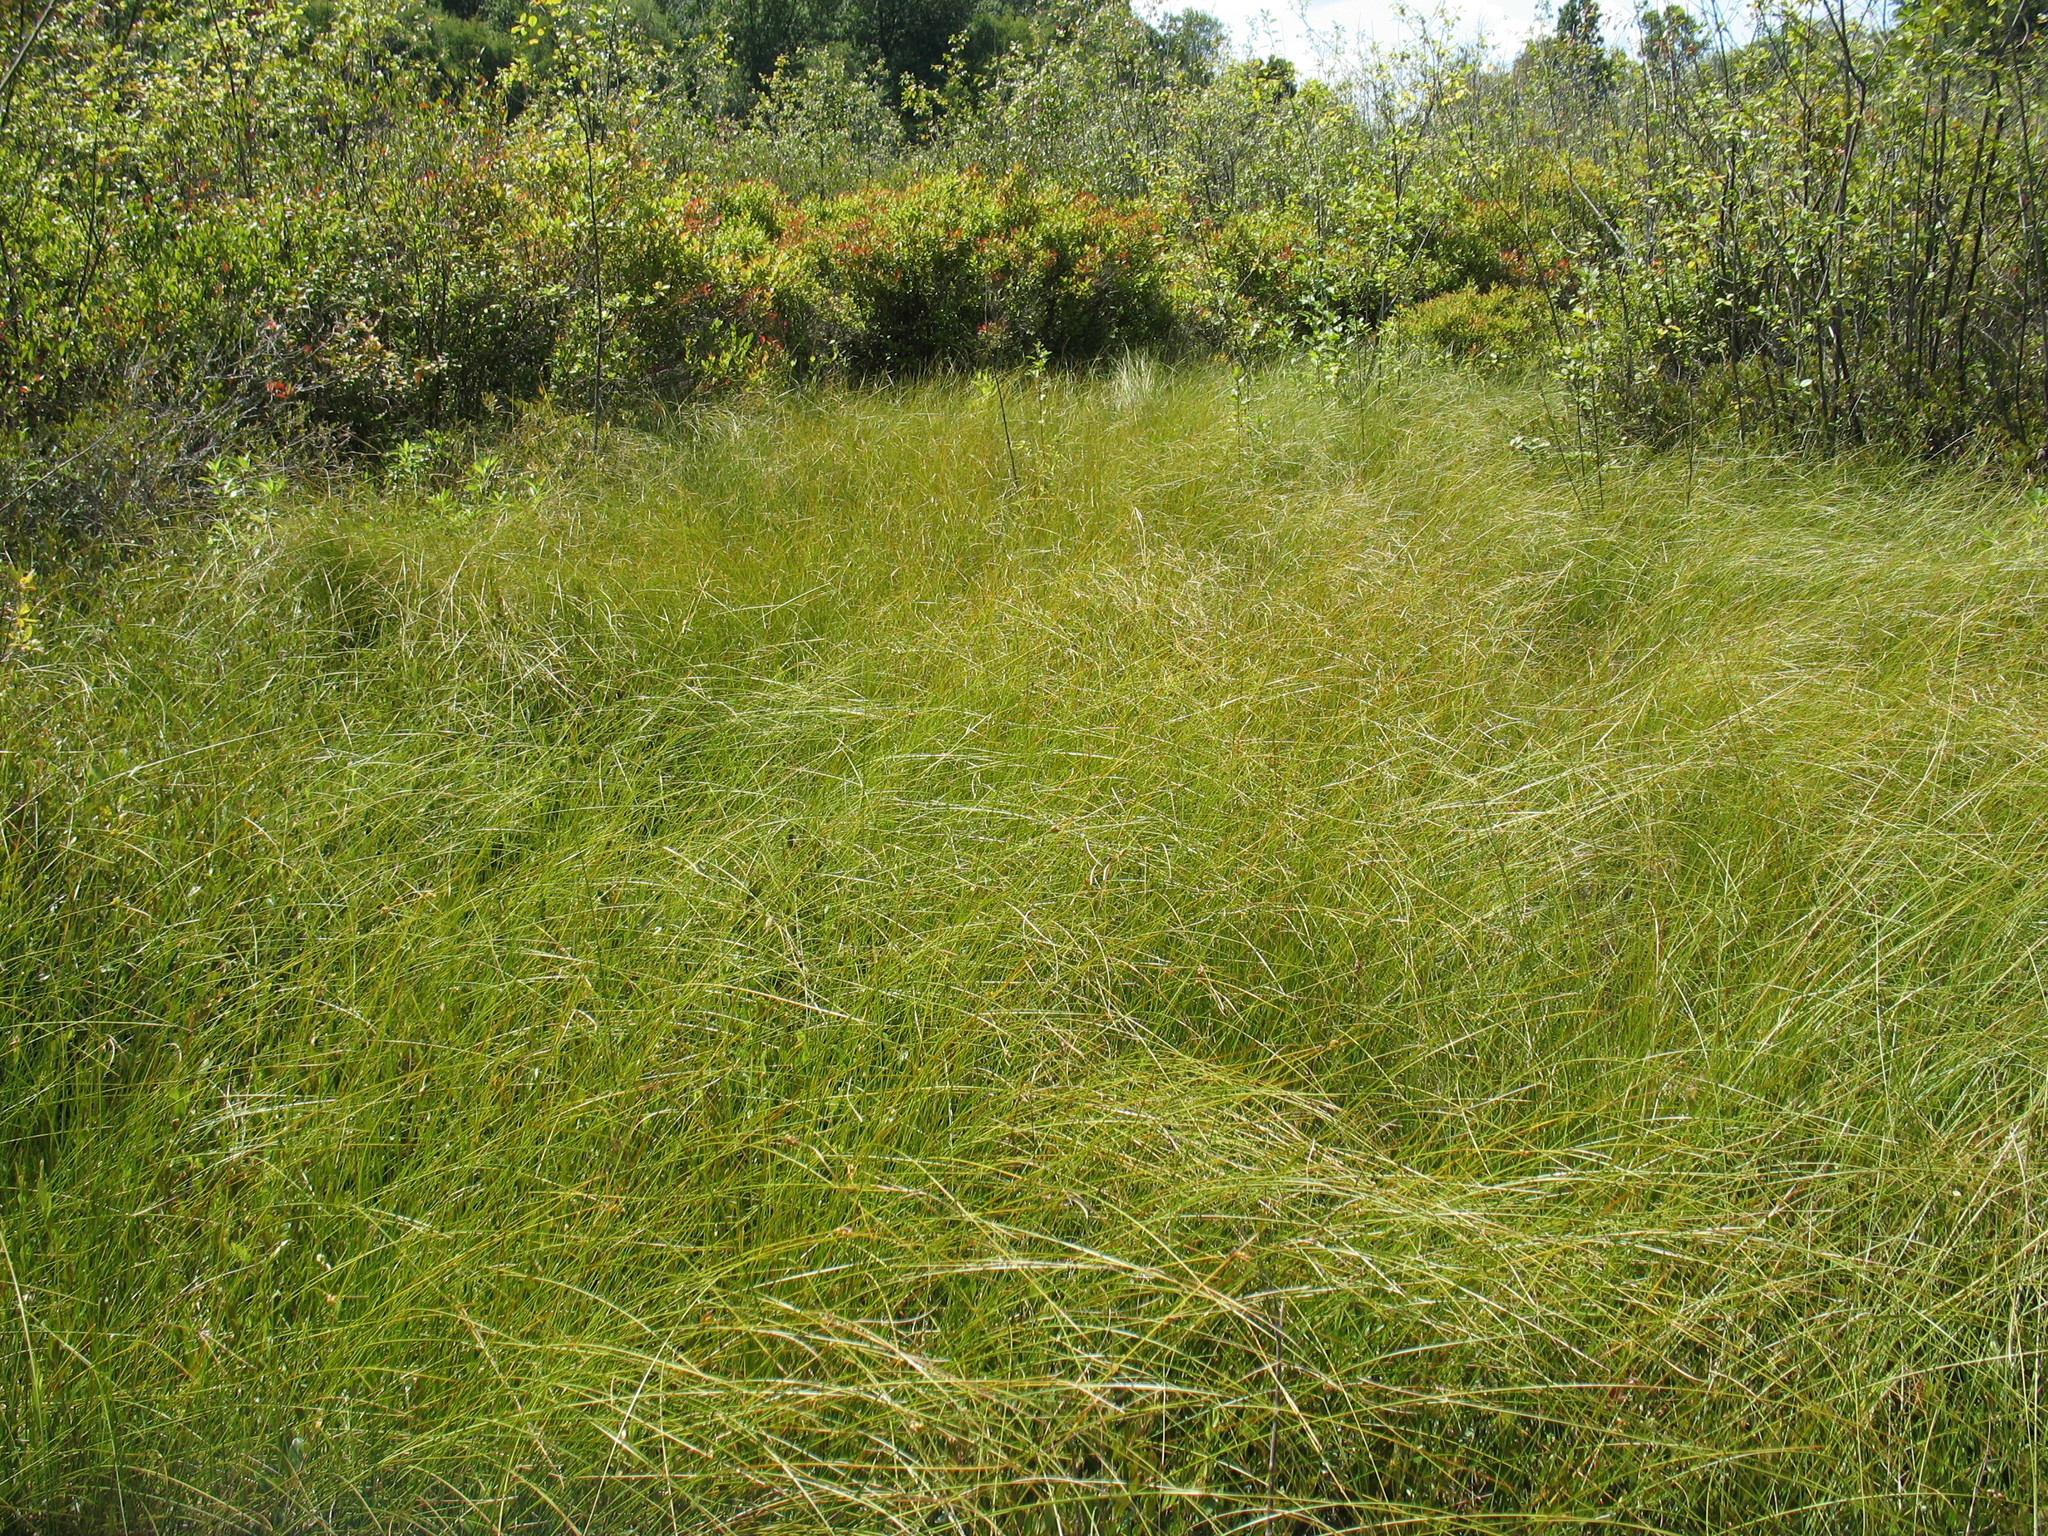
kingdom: Plantae
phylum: Tracheophyta
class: Liliopsida
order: Poales
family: Cyperaceae
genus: Carex
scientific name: Carex oligosperma
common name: Few-seed sedge
